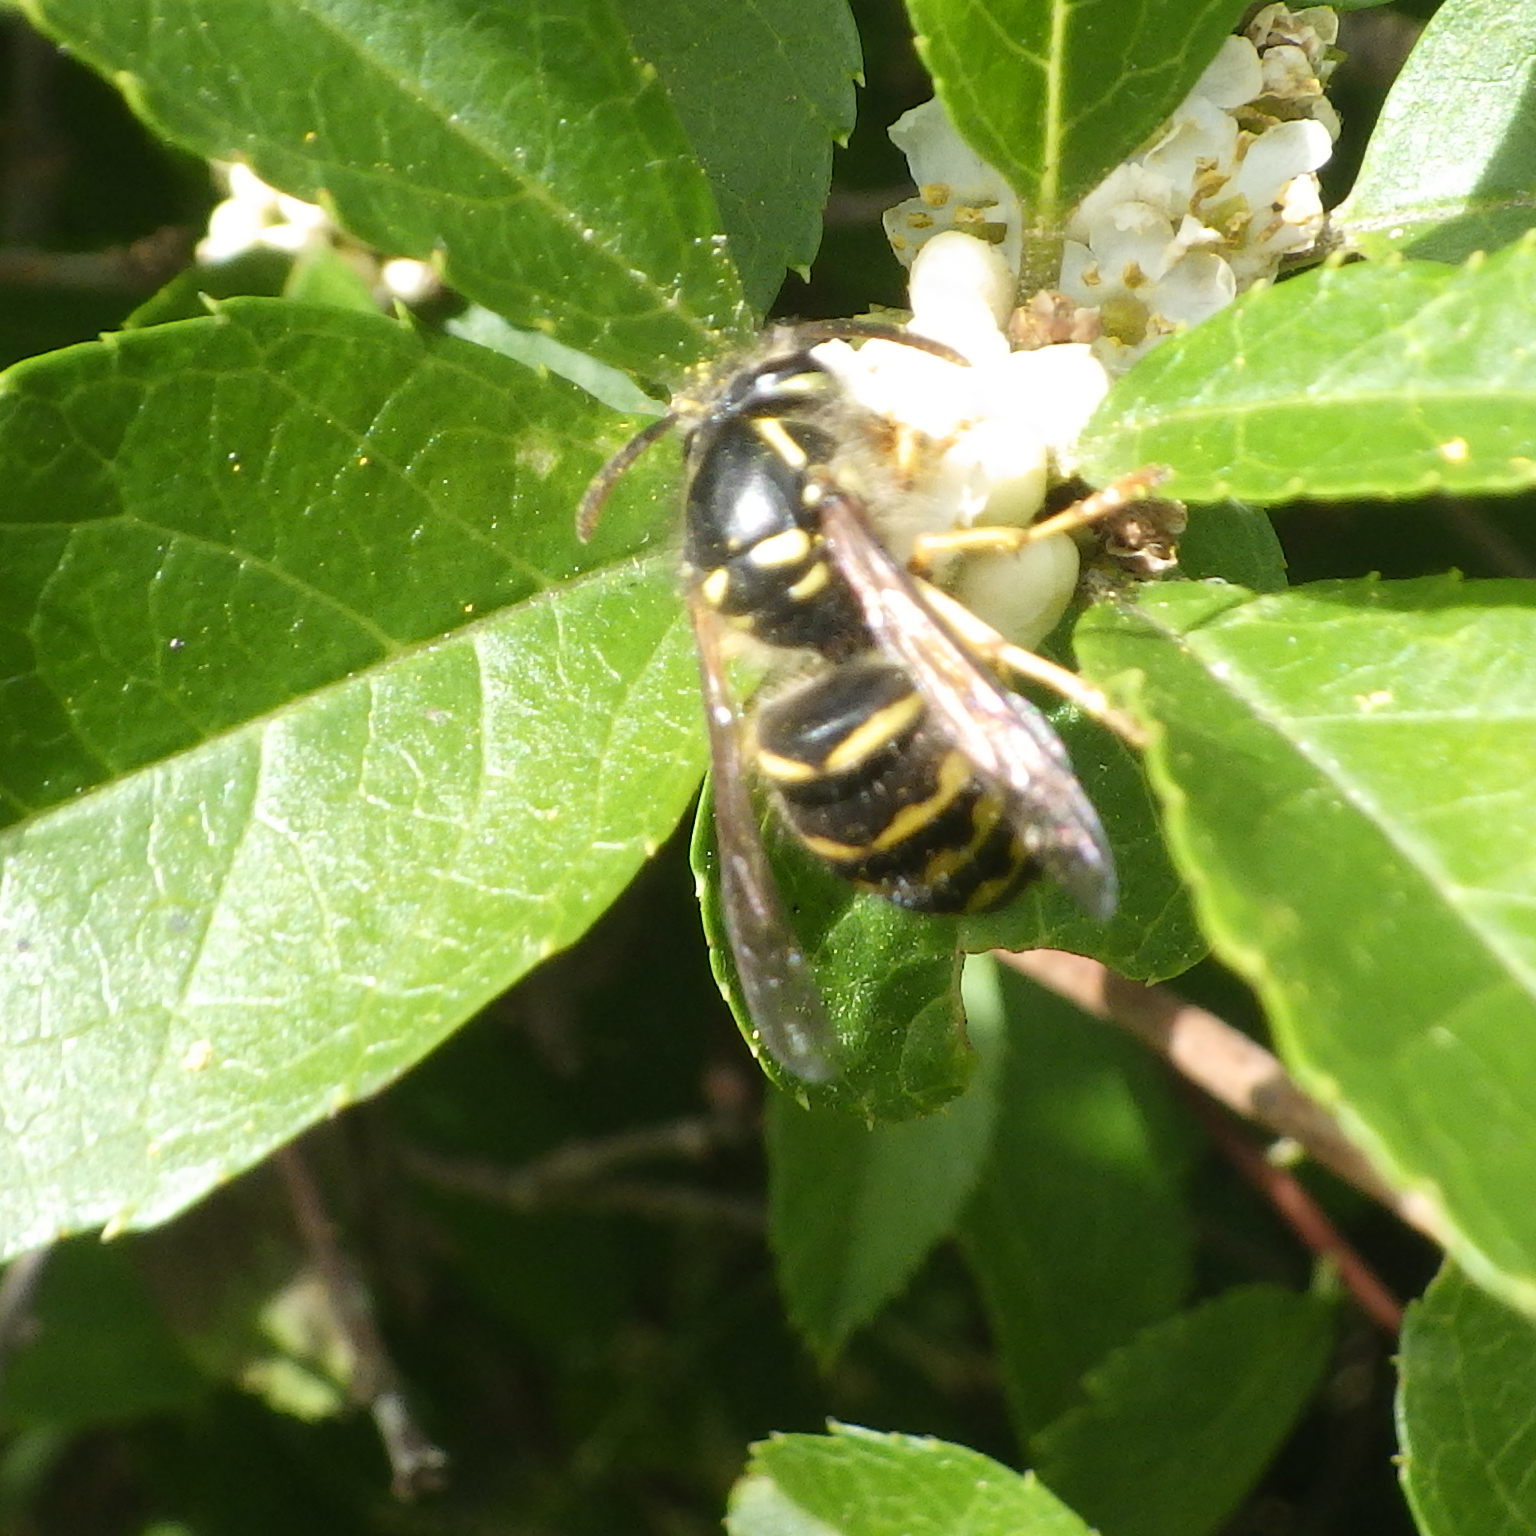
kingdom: Animalia
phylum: Arthropoda
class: Insecta
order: Hymenoptera
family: Vespidae
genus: Dolichovespula
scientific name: Dolichovespula arenaria
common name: Aerial yellowjacket
